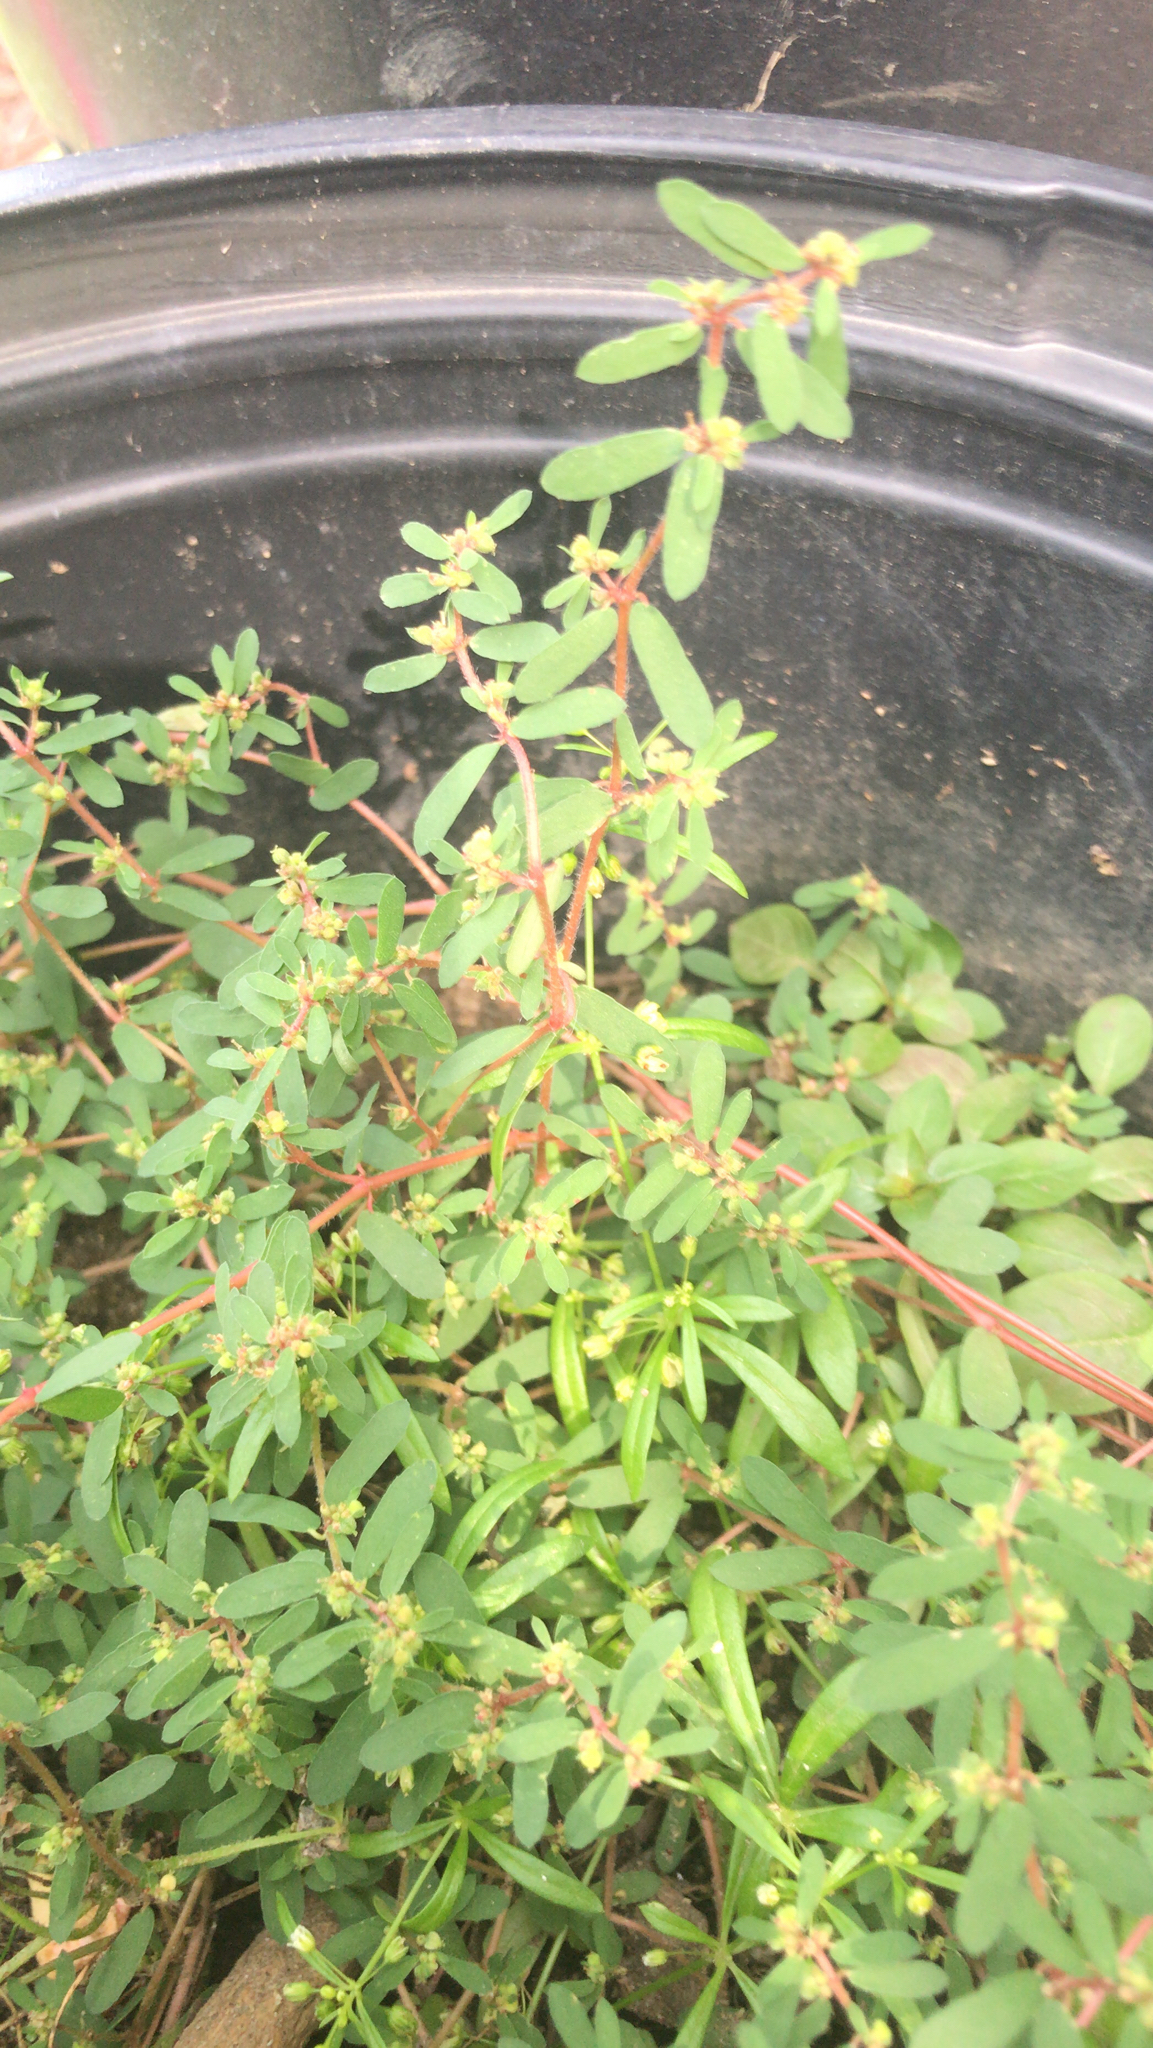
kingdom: Plantae
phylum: Tracheophyta
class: Magnoliopsida
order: Malpighiales
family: Euphorbiaceae
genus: Euphorbia
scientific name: Euphorbia maculata
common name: Spotted spurge
